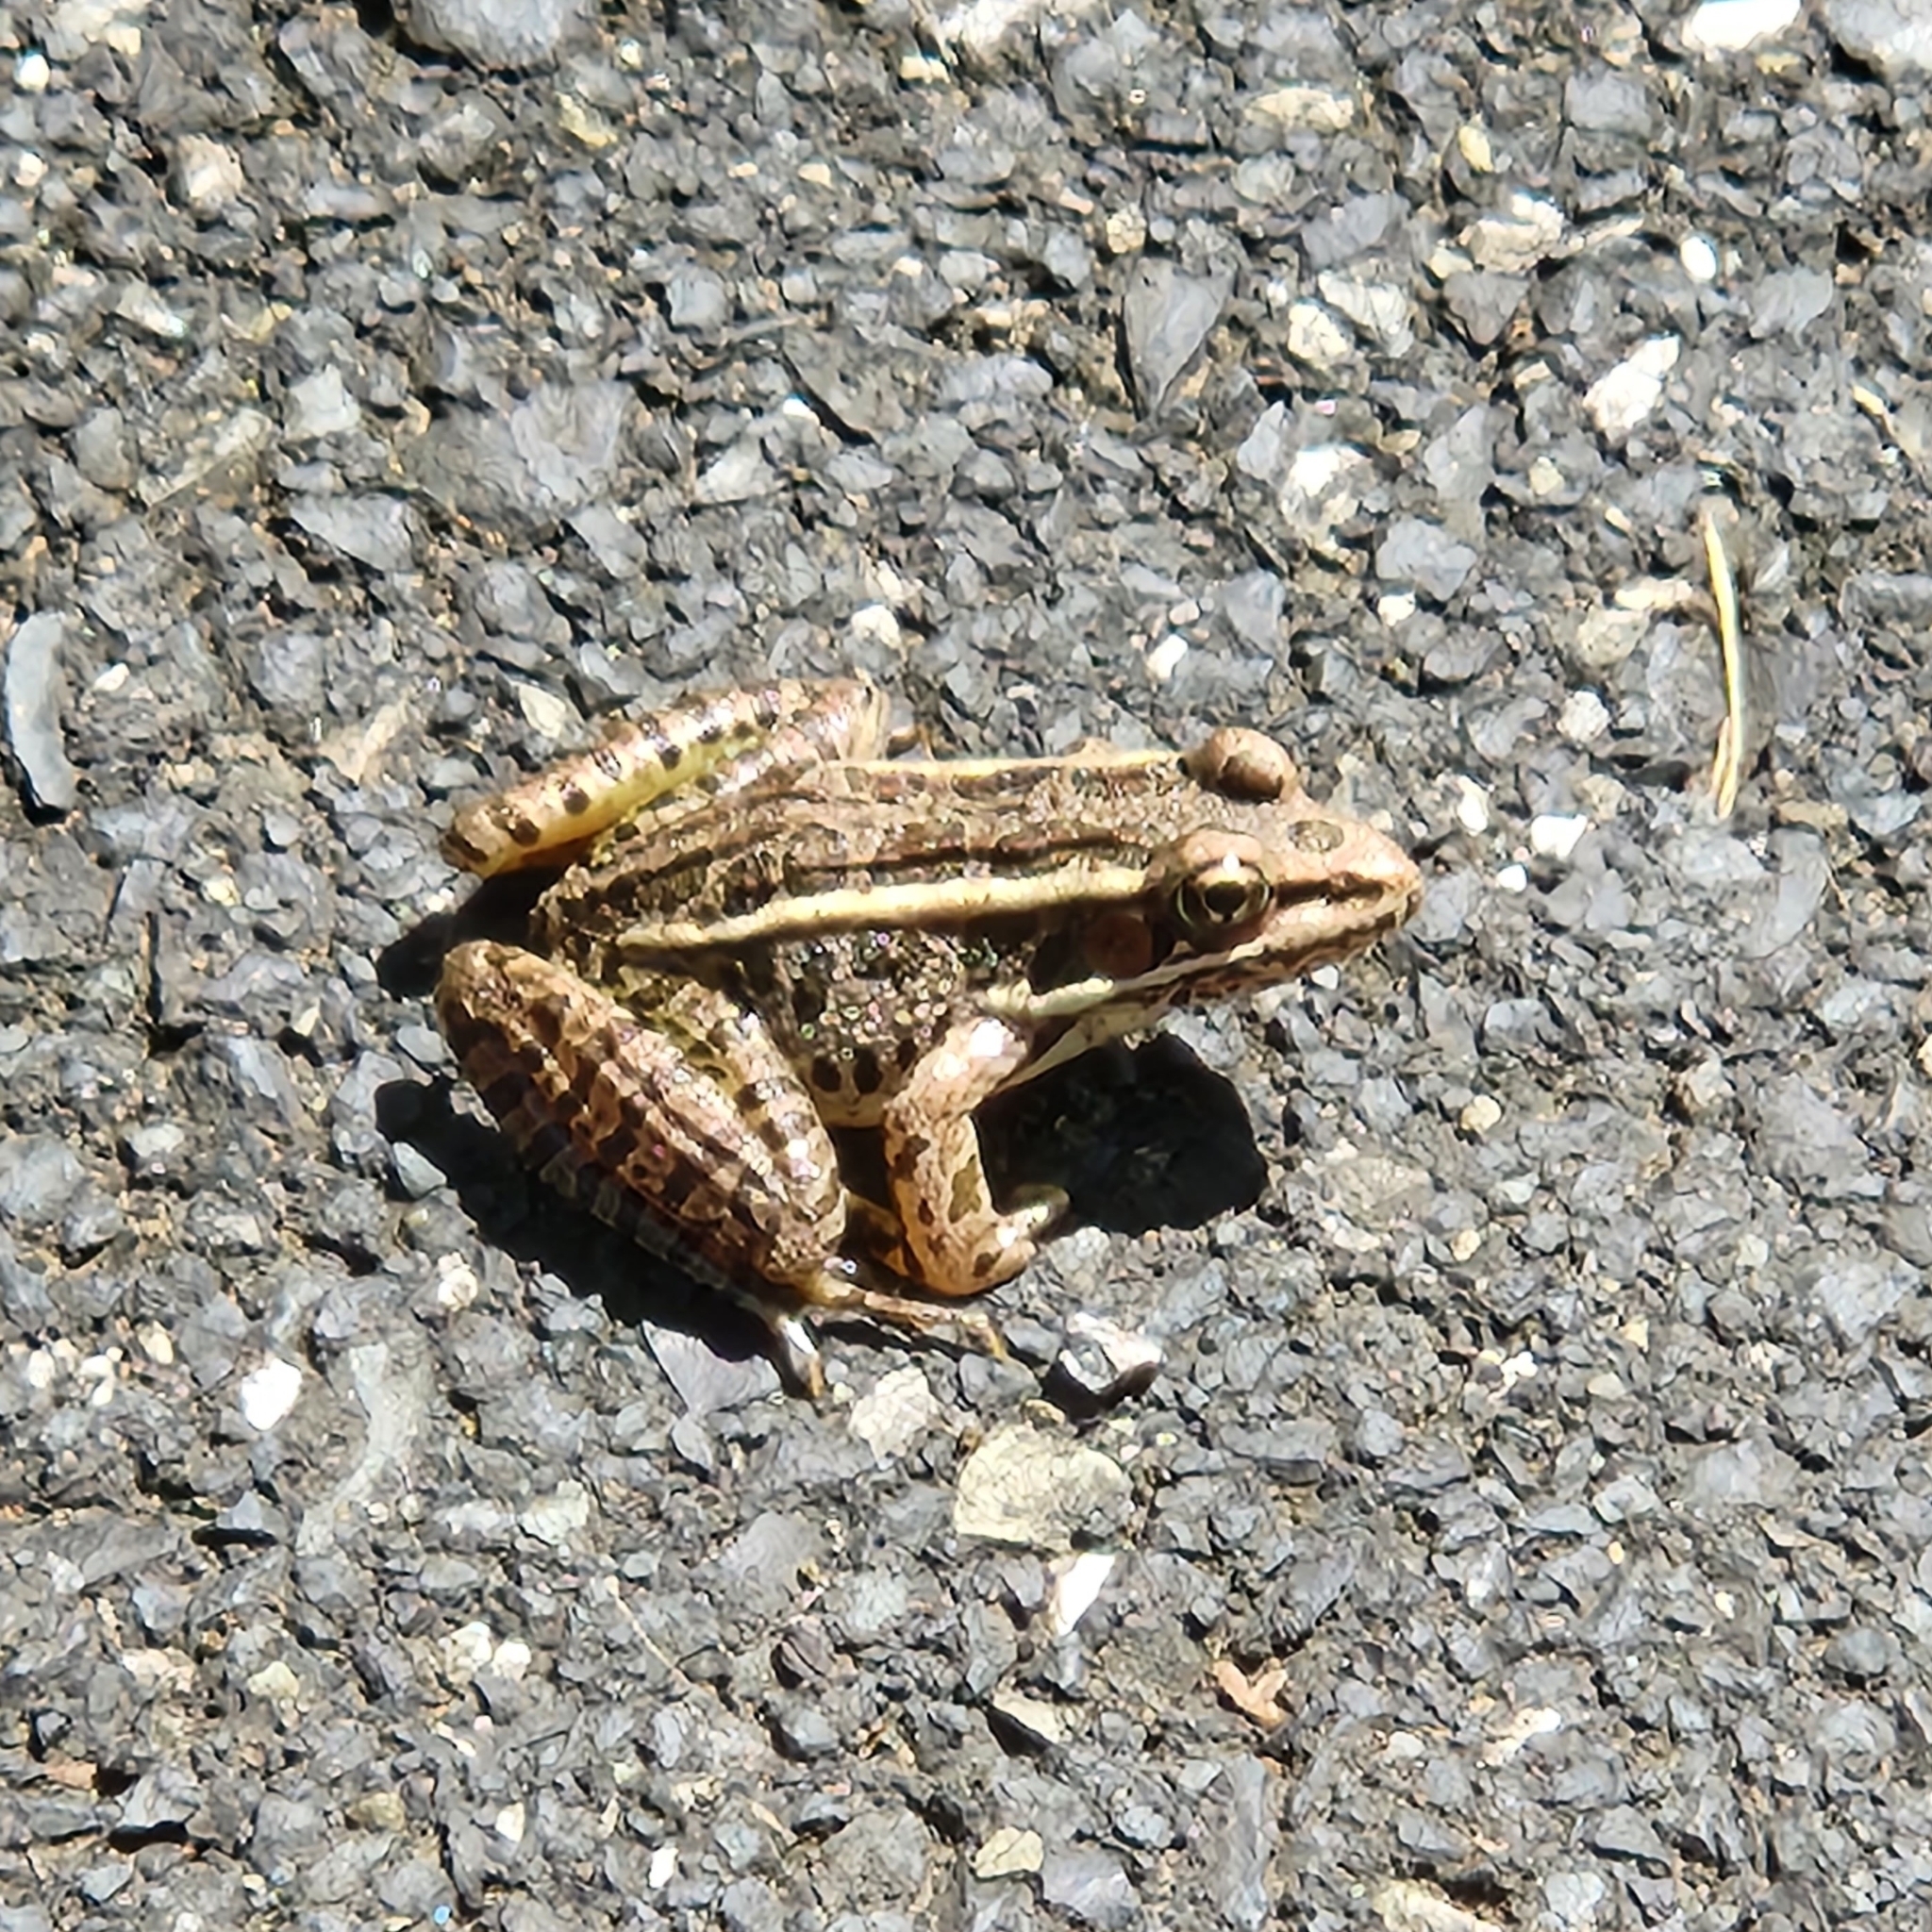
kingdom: Animalia
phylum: Chordata
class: Amphibia
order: Anura
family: Ranidae
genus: Lithobates
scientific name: Lithobates palustris
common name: Pickerel frog
